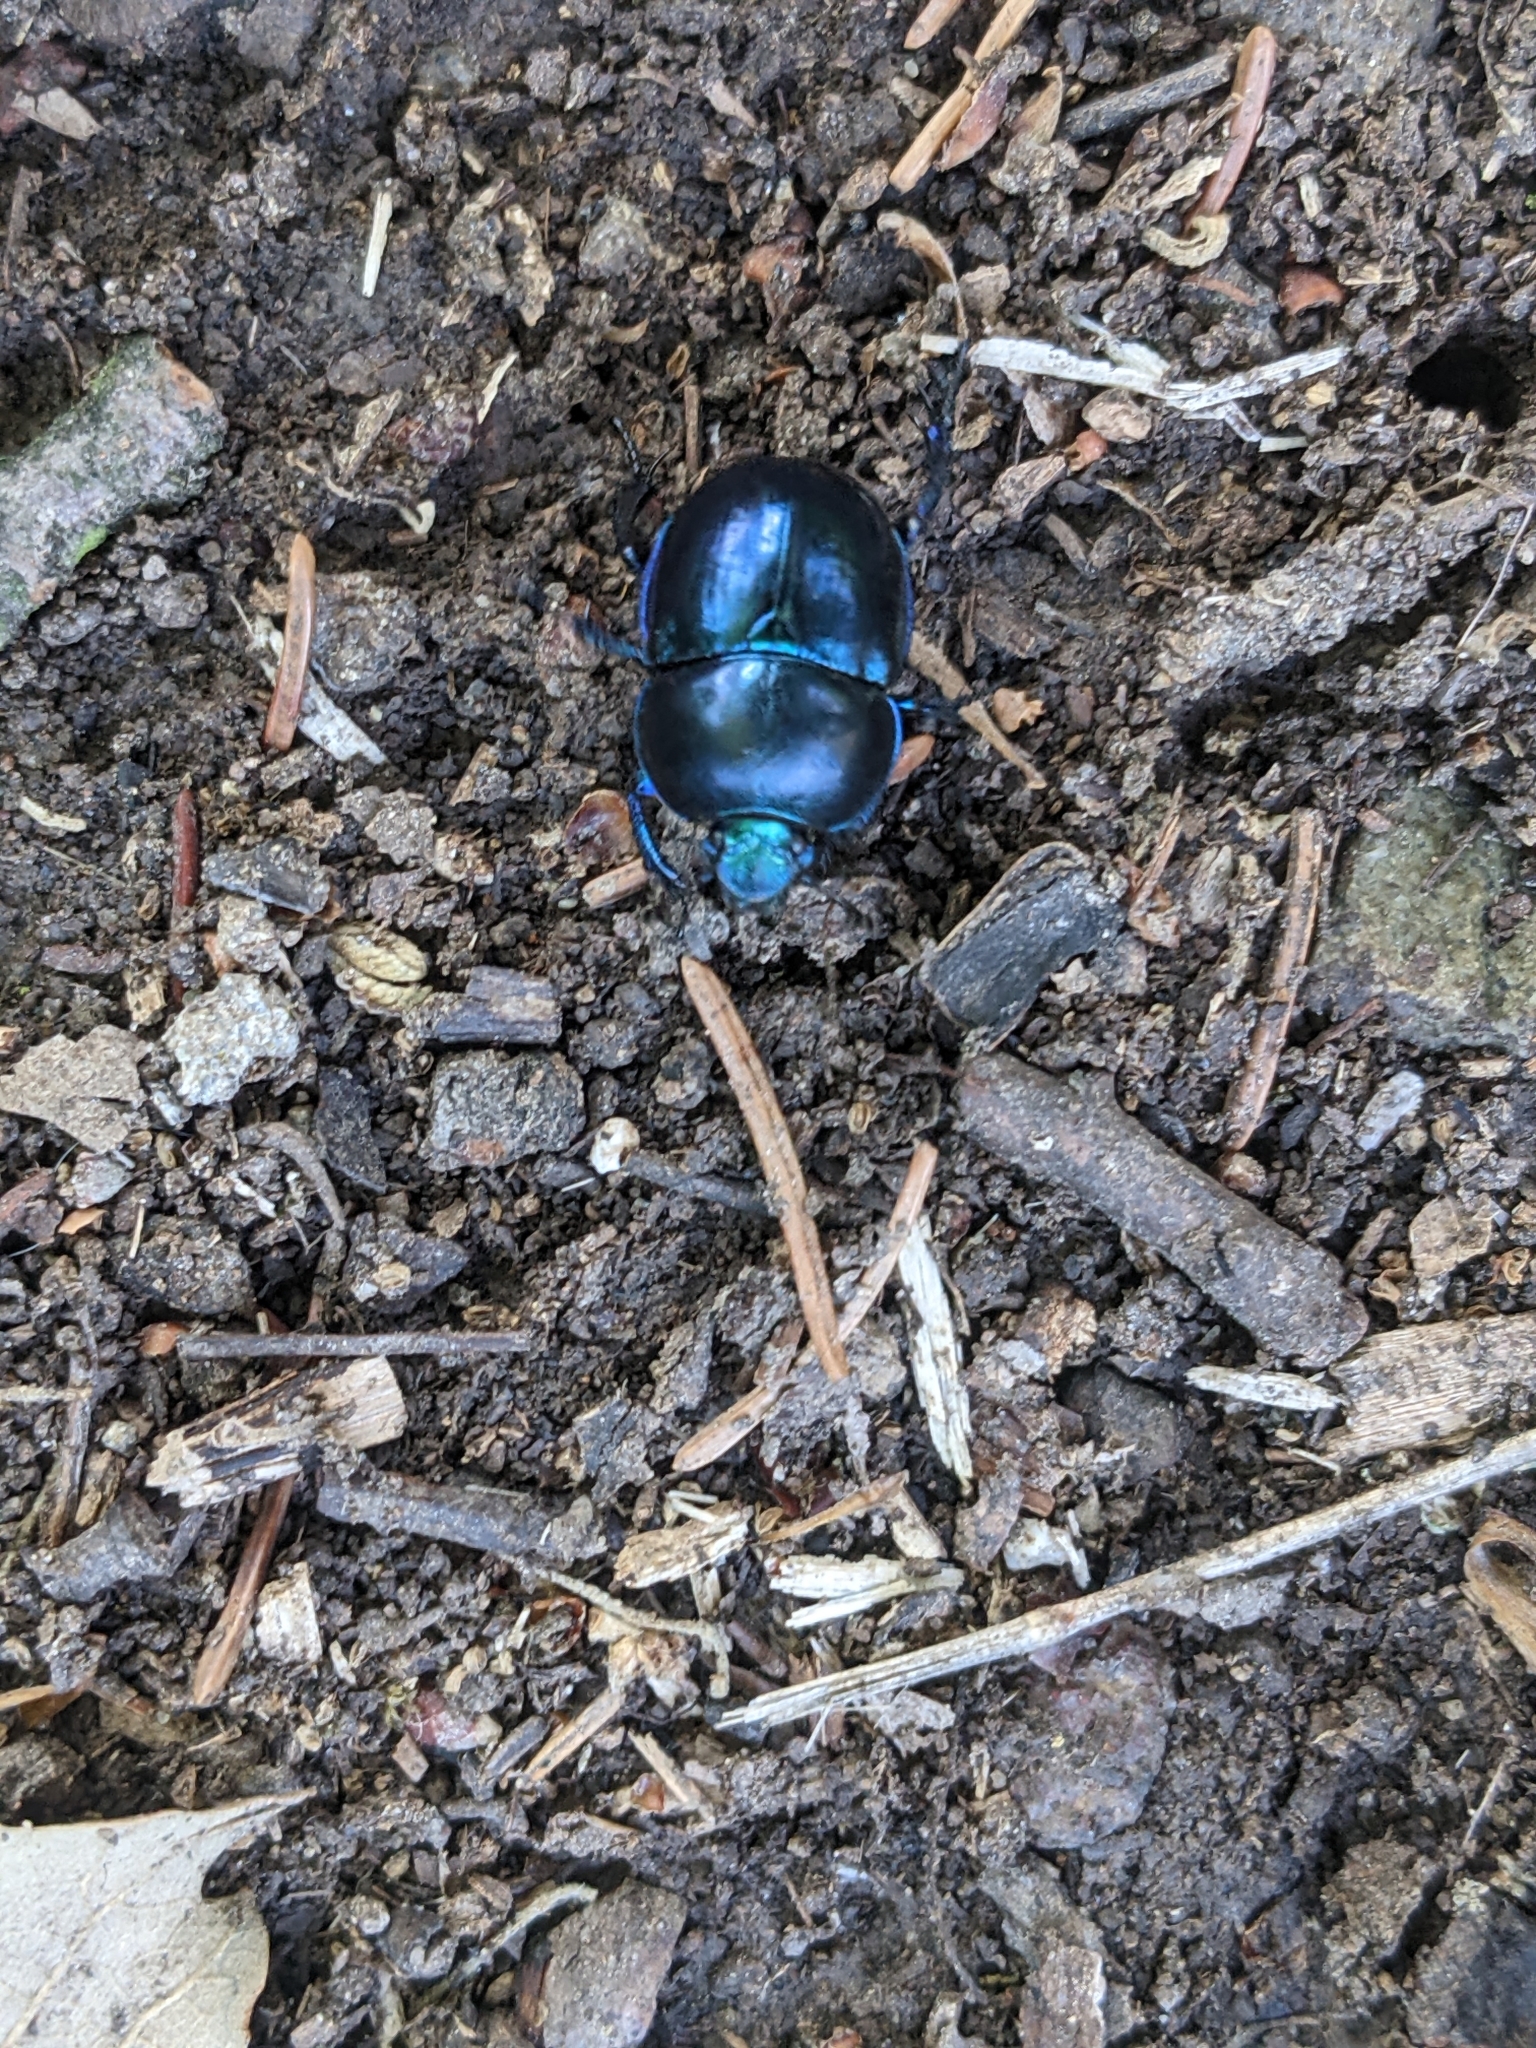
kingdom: Animalia
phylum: Arthropoda
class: Insecta
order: Coleoptera
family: Geotrupidae
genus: Trypocopris
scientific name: Trypocopris vernalis
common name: Spring dumbledor
